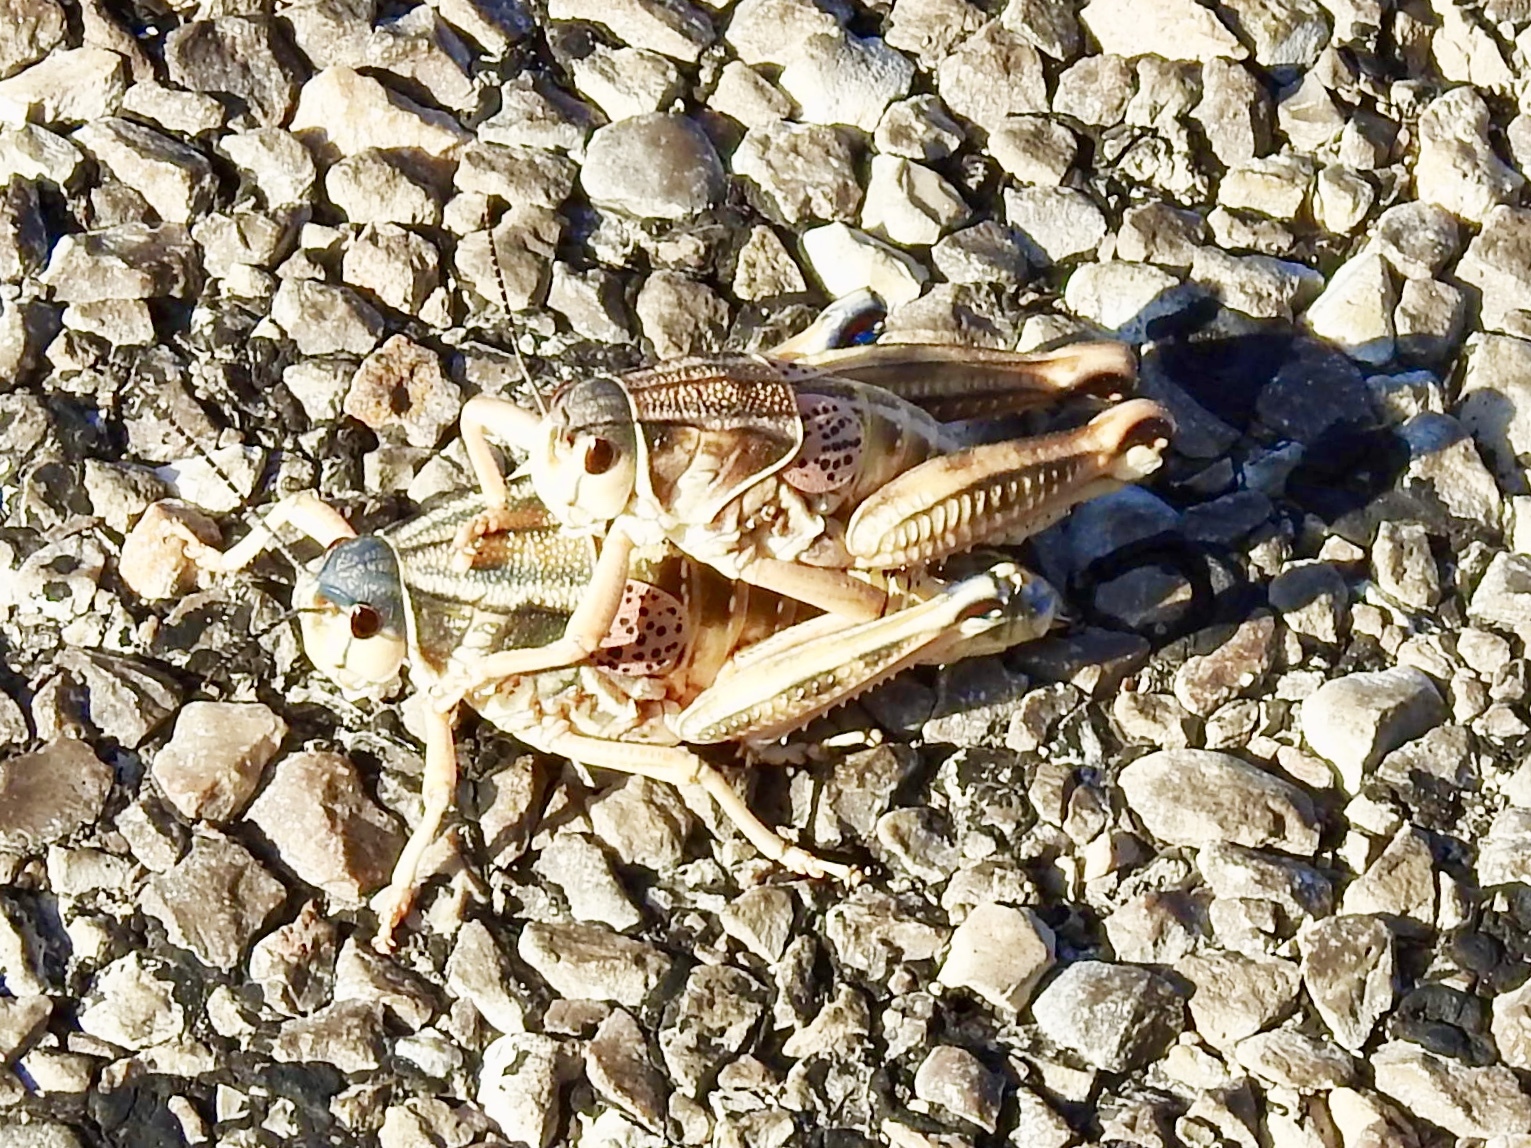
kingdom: Animalia
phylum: Arthropoda
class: Insecta
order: Orthoptera
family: Romaleidae
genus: Brachystola
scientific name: Brachystola magna
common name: Plains lubber grasshopper
